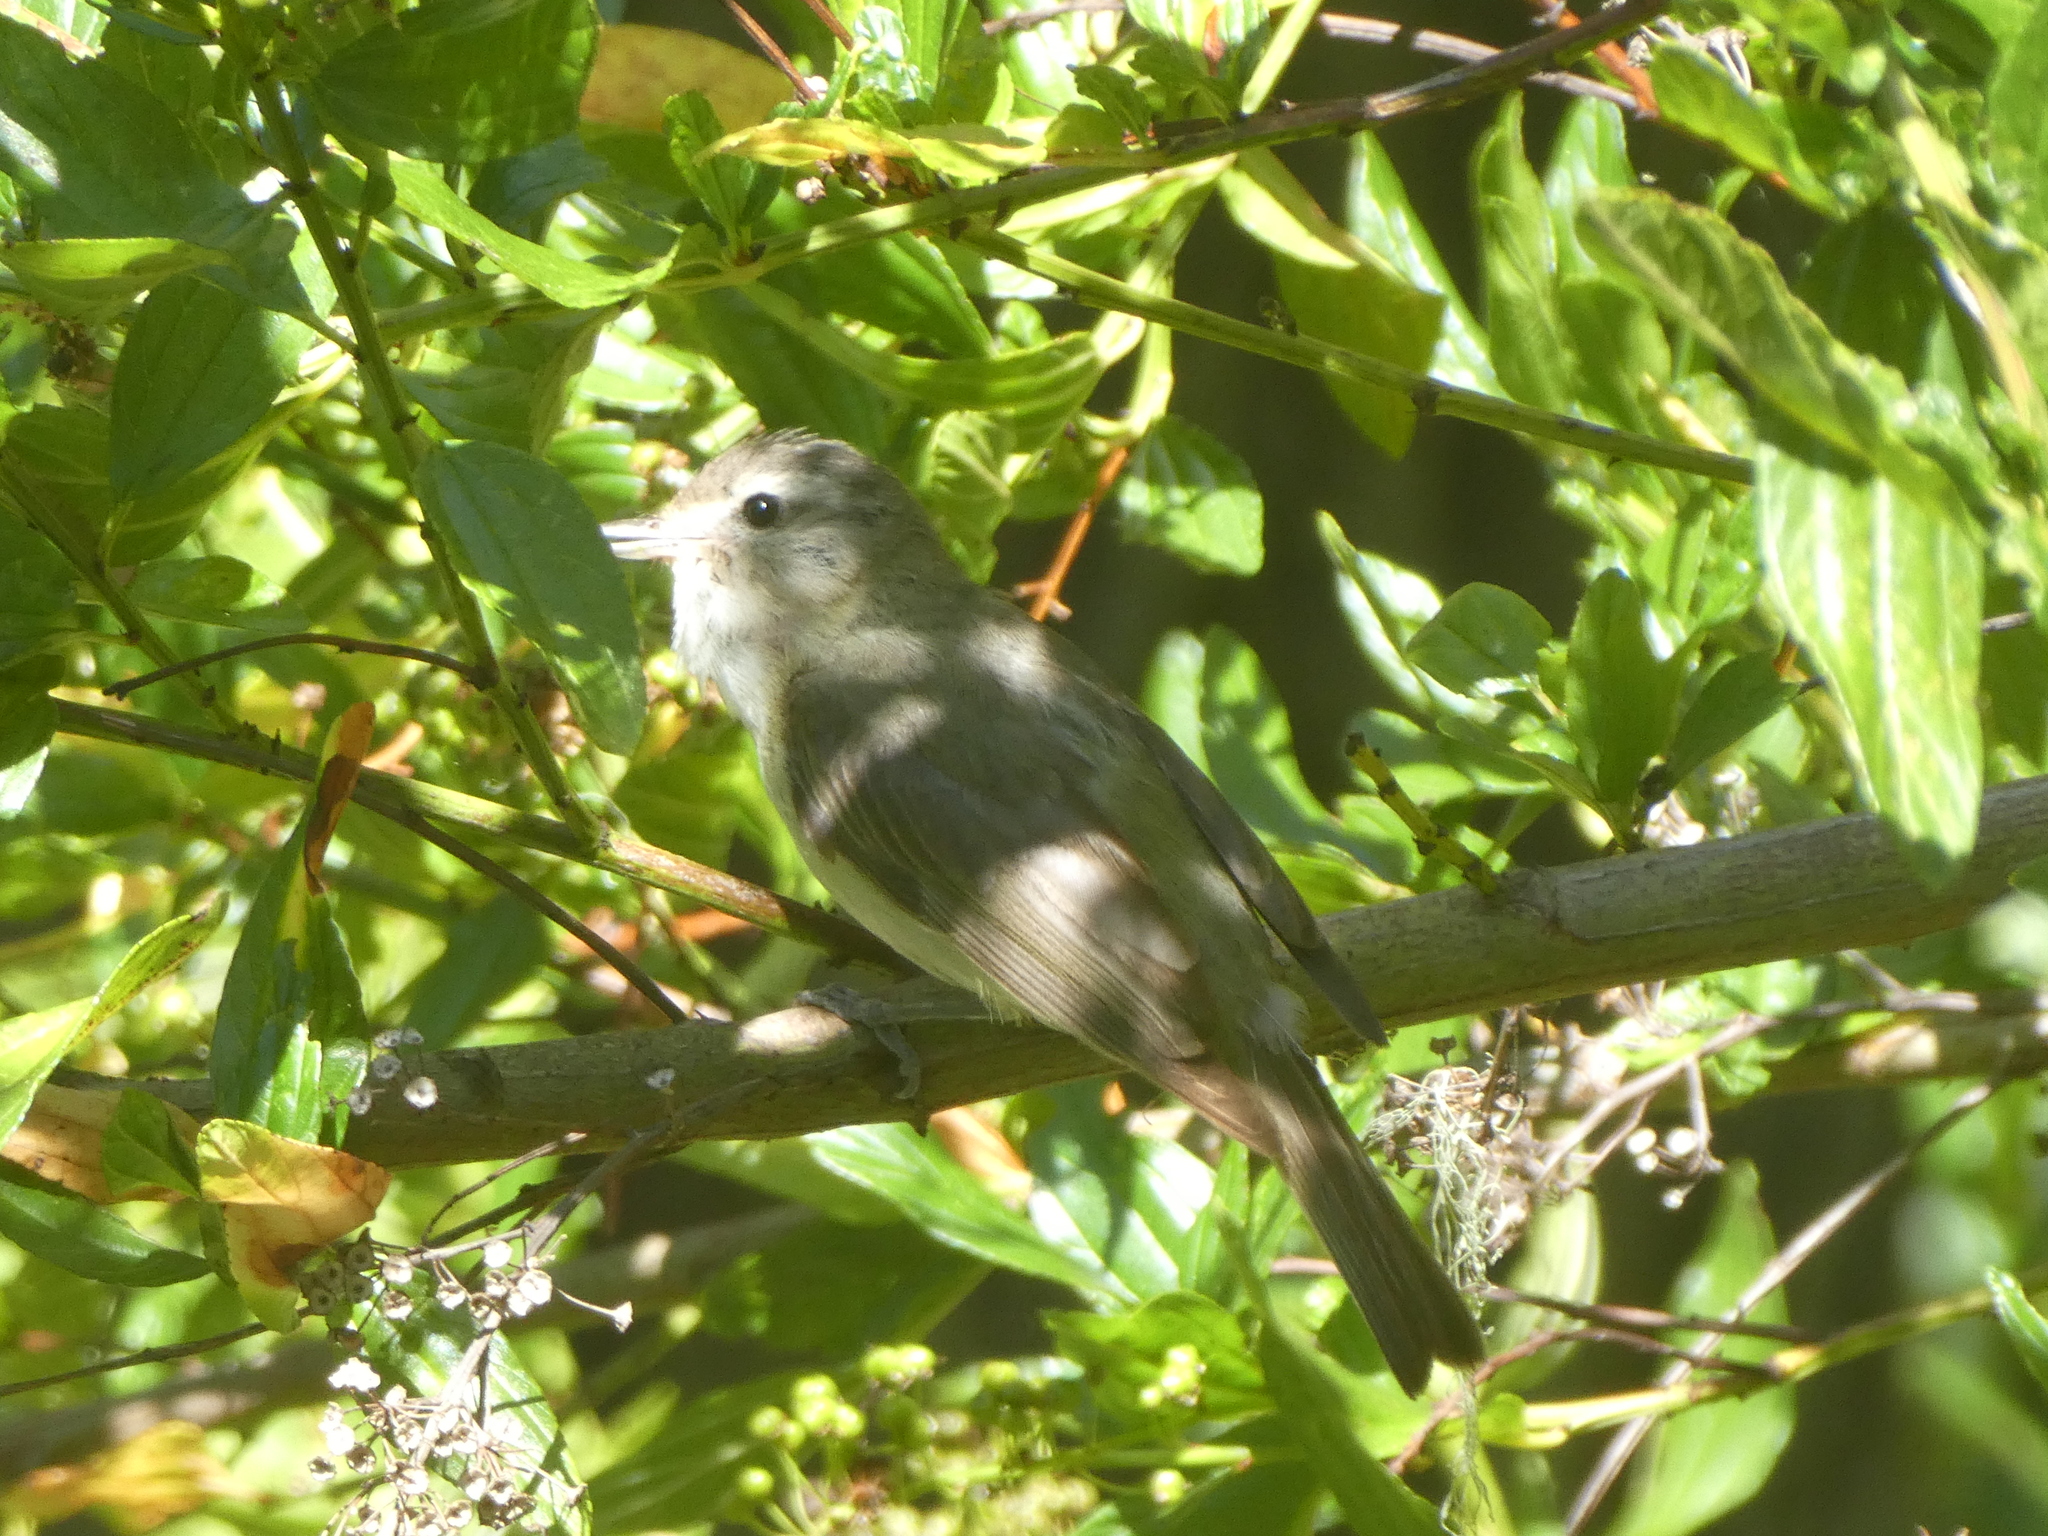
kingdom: Animalia
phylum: Chordata
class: Aves
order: Passeriformes
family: Vireonidae
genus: Vireo
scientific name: Vireo gilvus
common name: Warbling vireo
